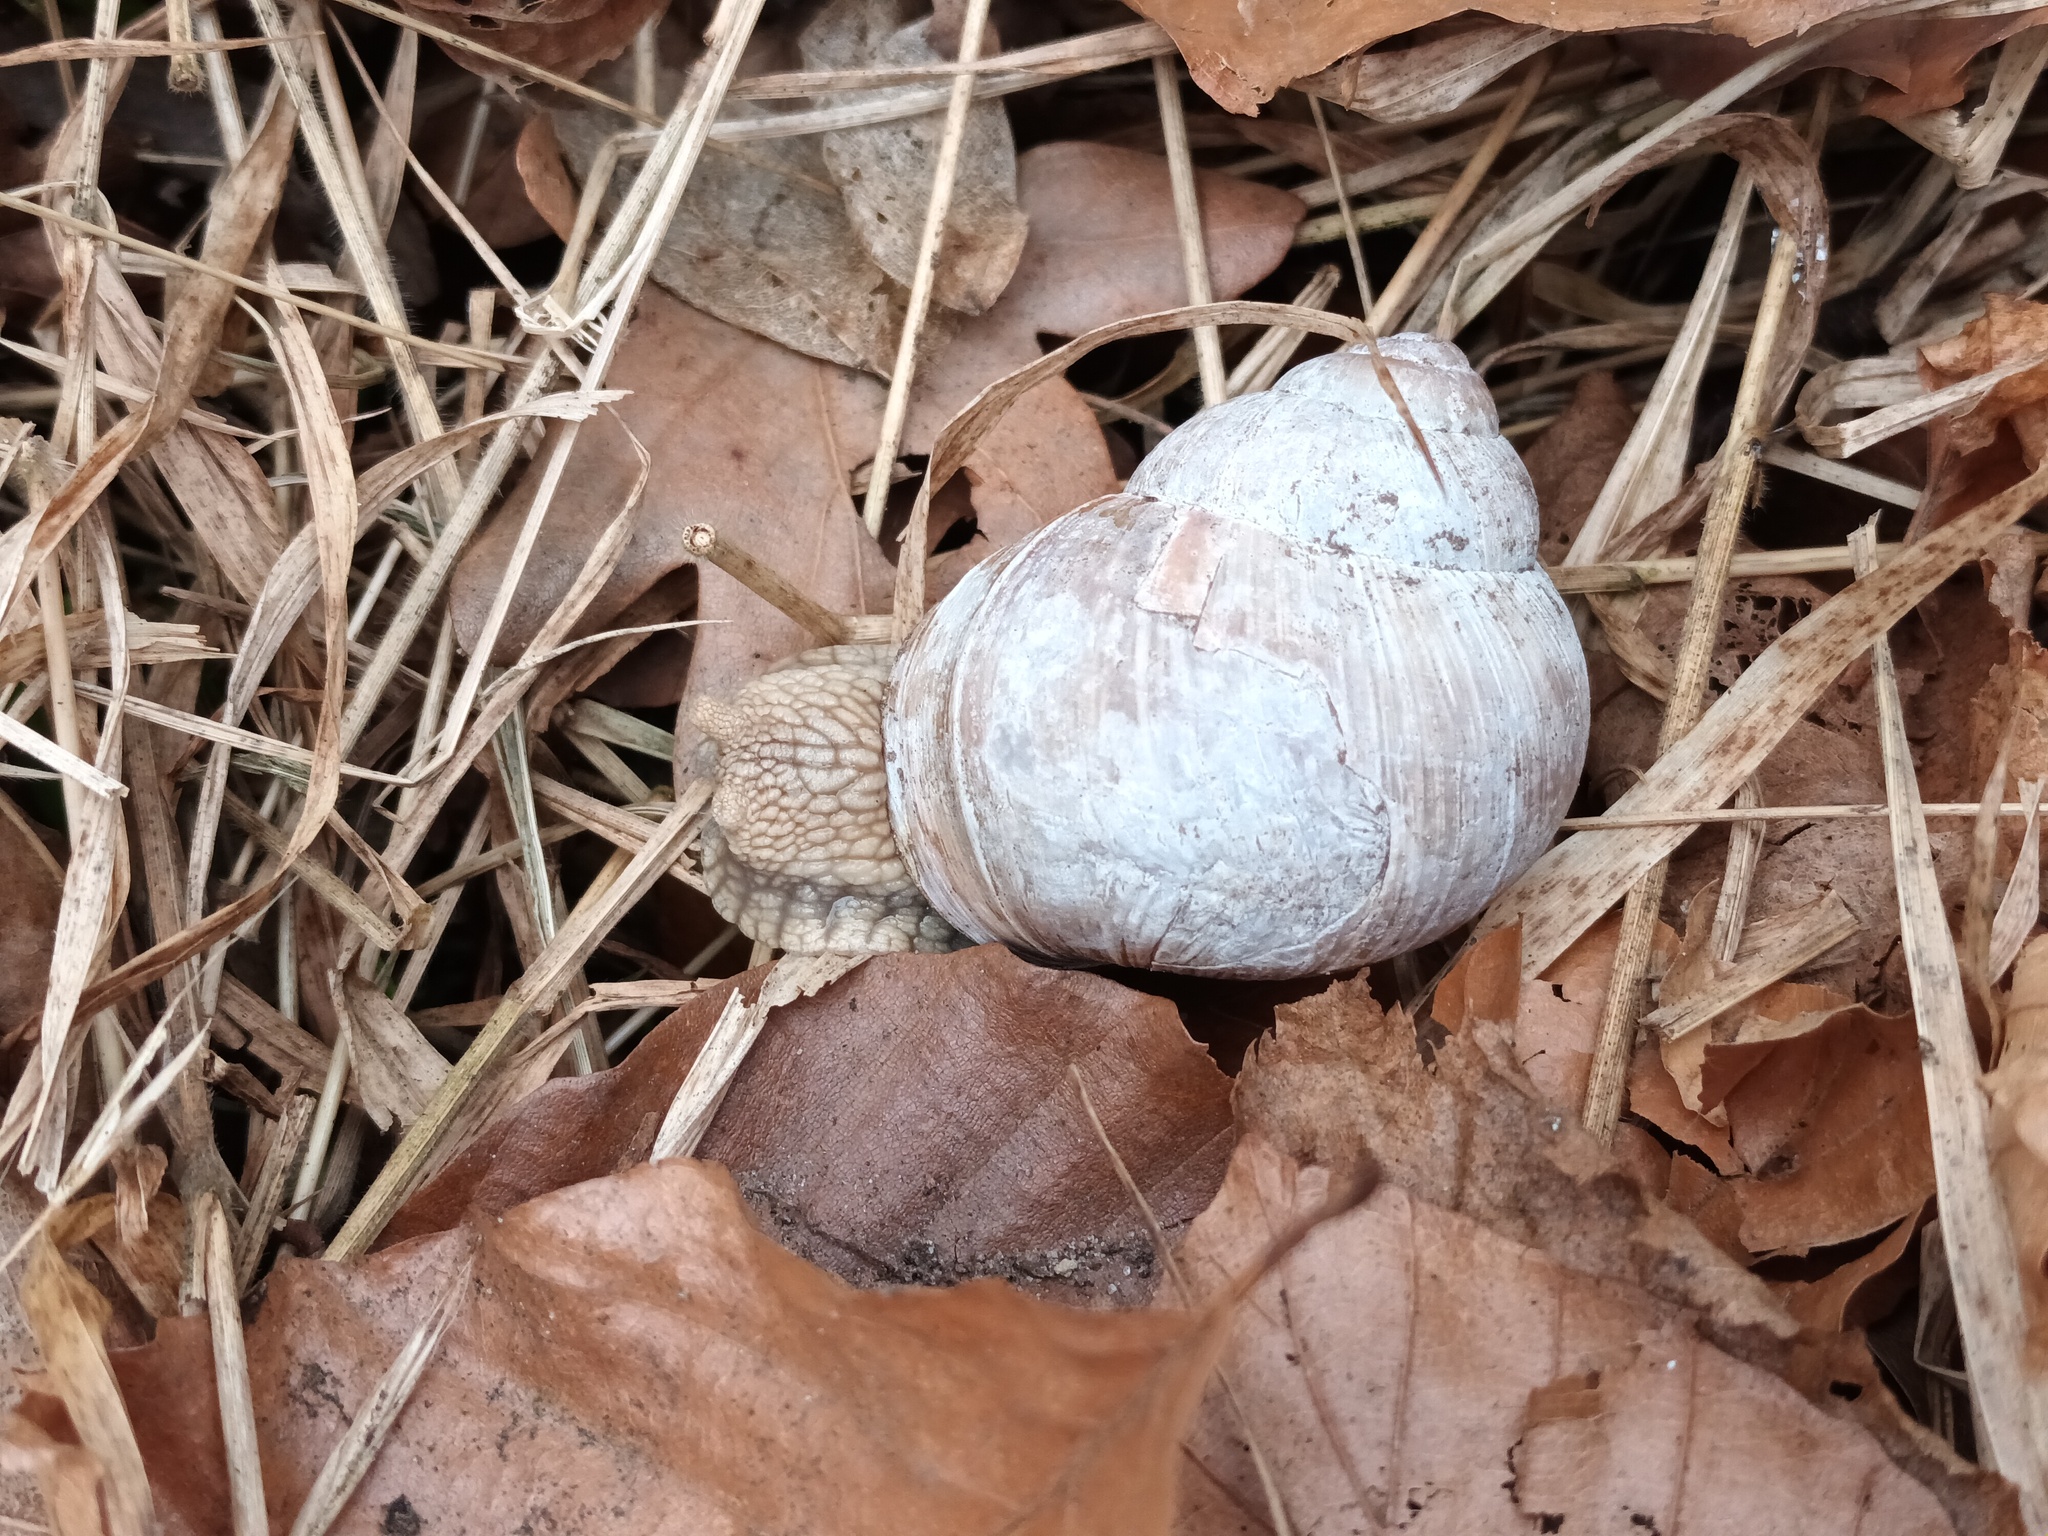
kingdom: Animalia
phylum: Mollusca
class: Gastropoda
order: Stylommatophora
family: Helicidae
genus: Helix
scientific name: Helix pomatia
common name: Roman snail
